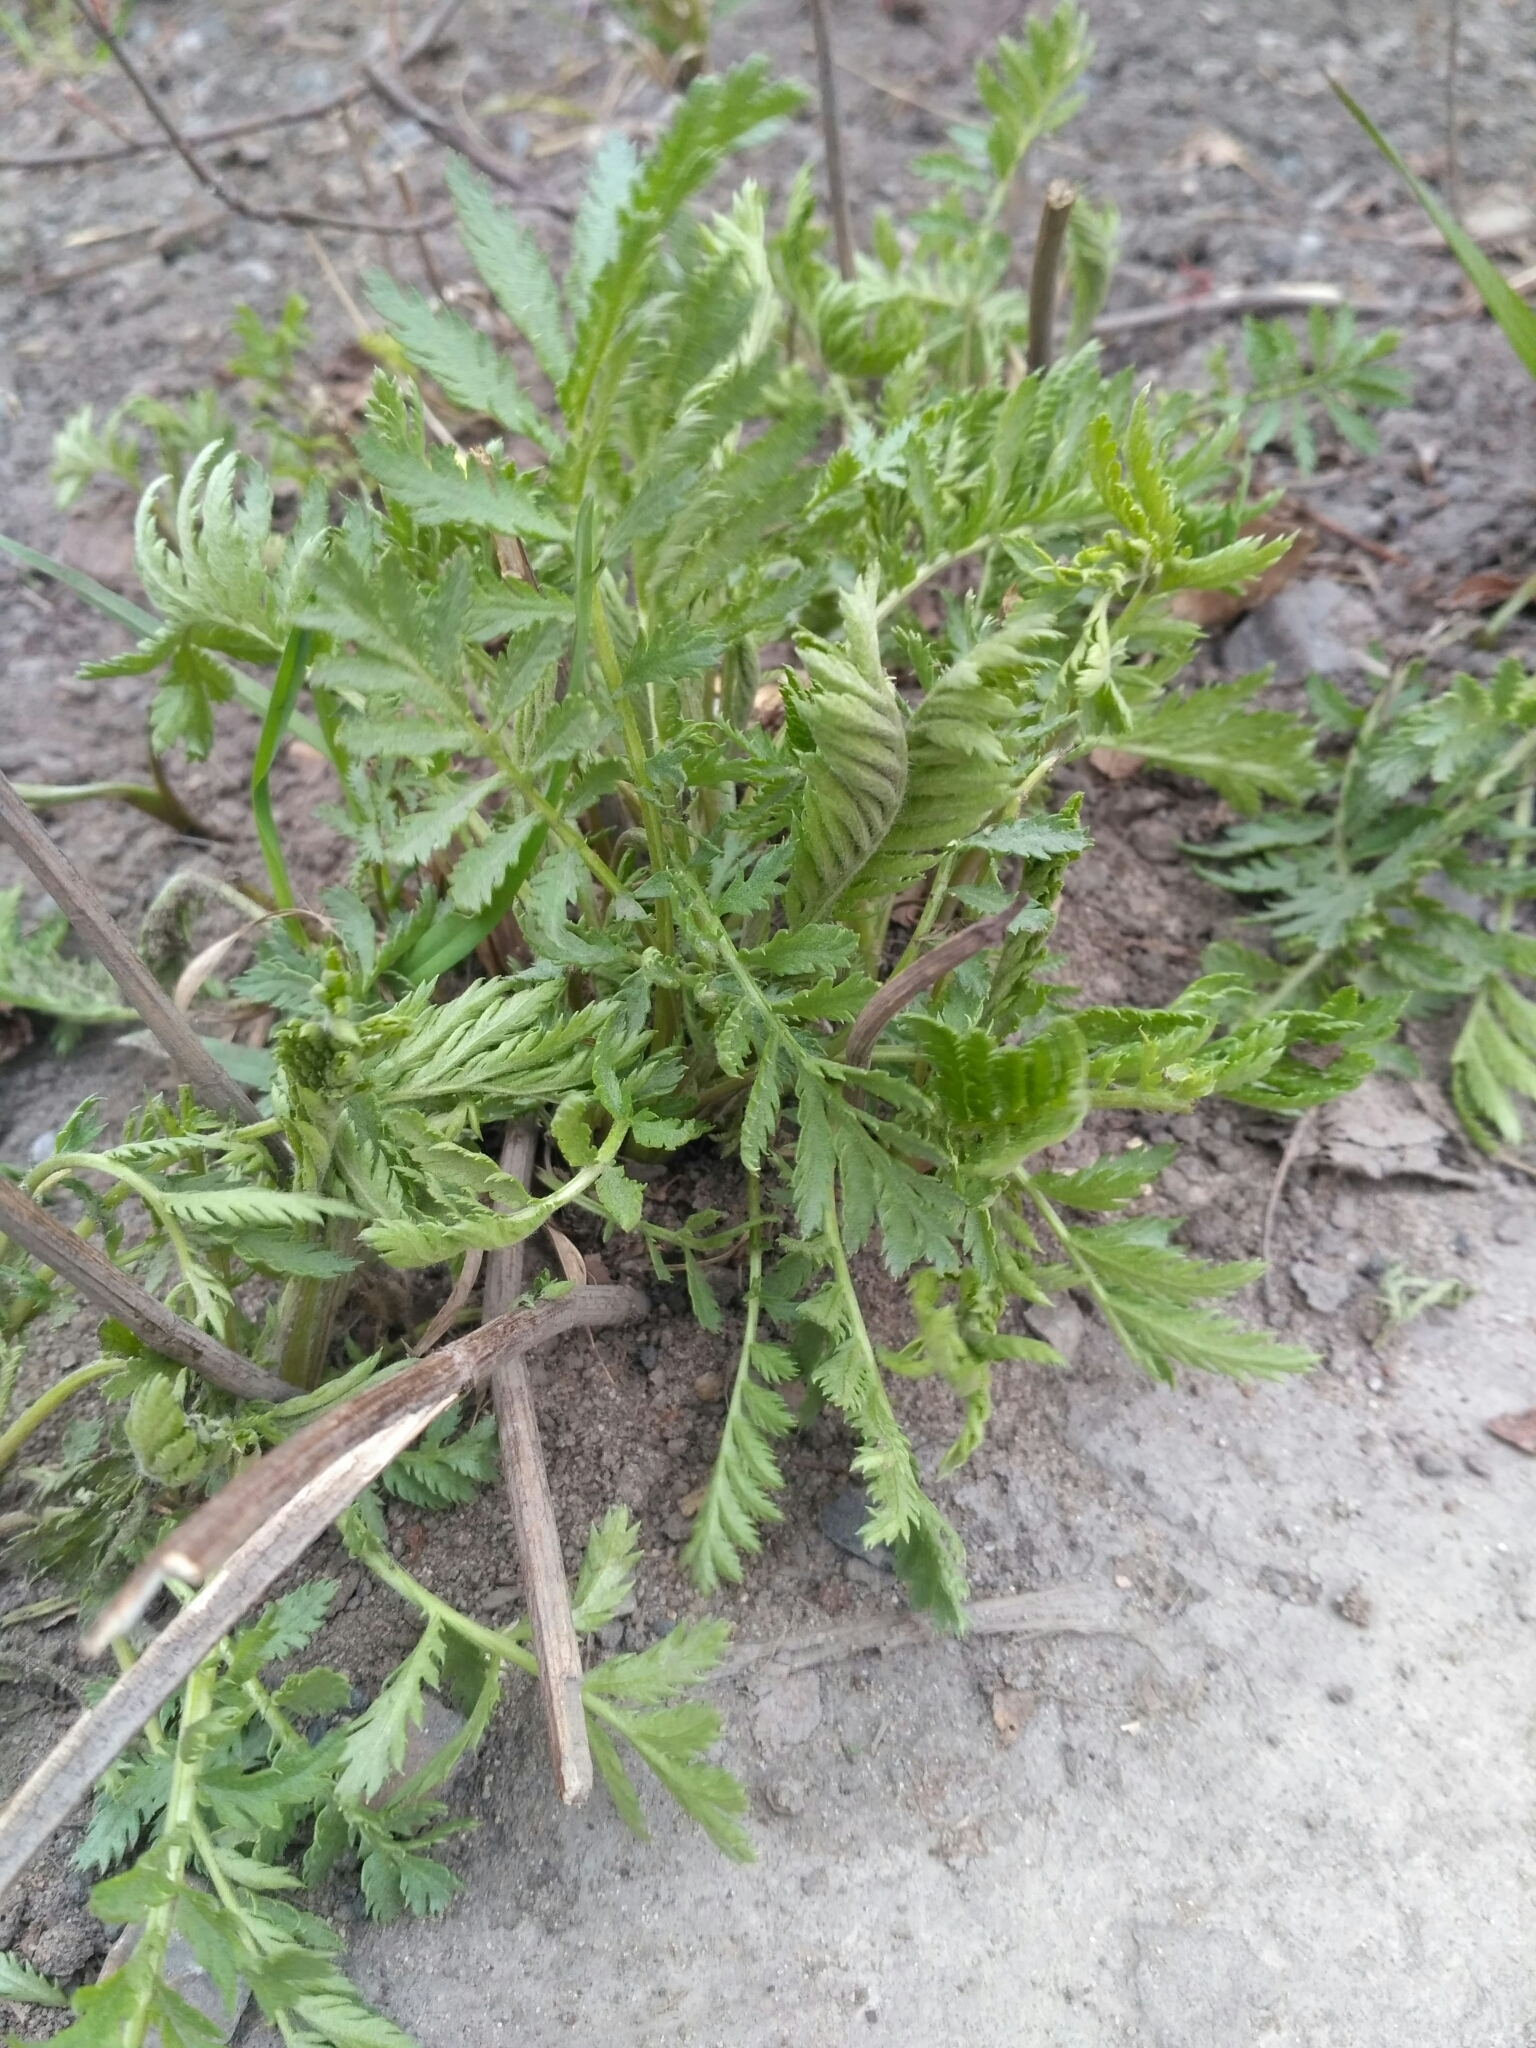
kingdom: Plantae
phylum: Tracheophyta
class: Magnoliopsida
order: Asterales
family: Asteraceae
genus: Tanacetum
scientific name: Tanacetum vulgare
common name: Common tansy
